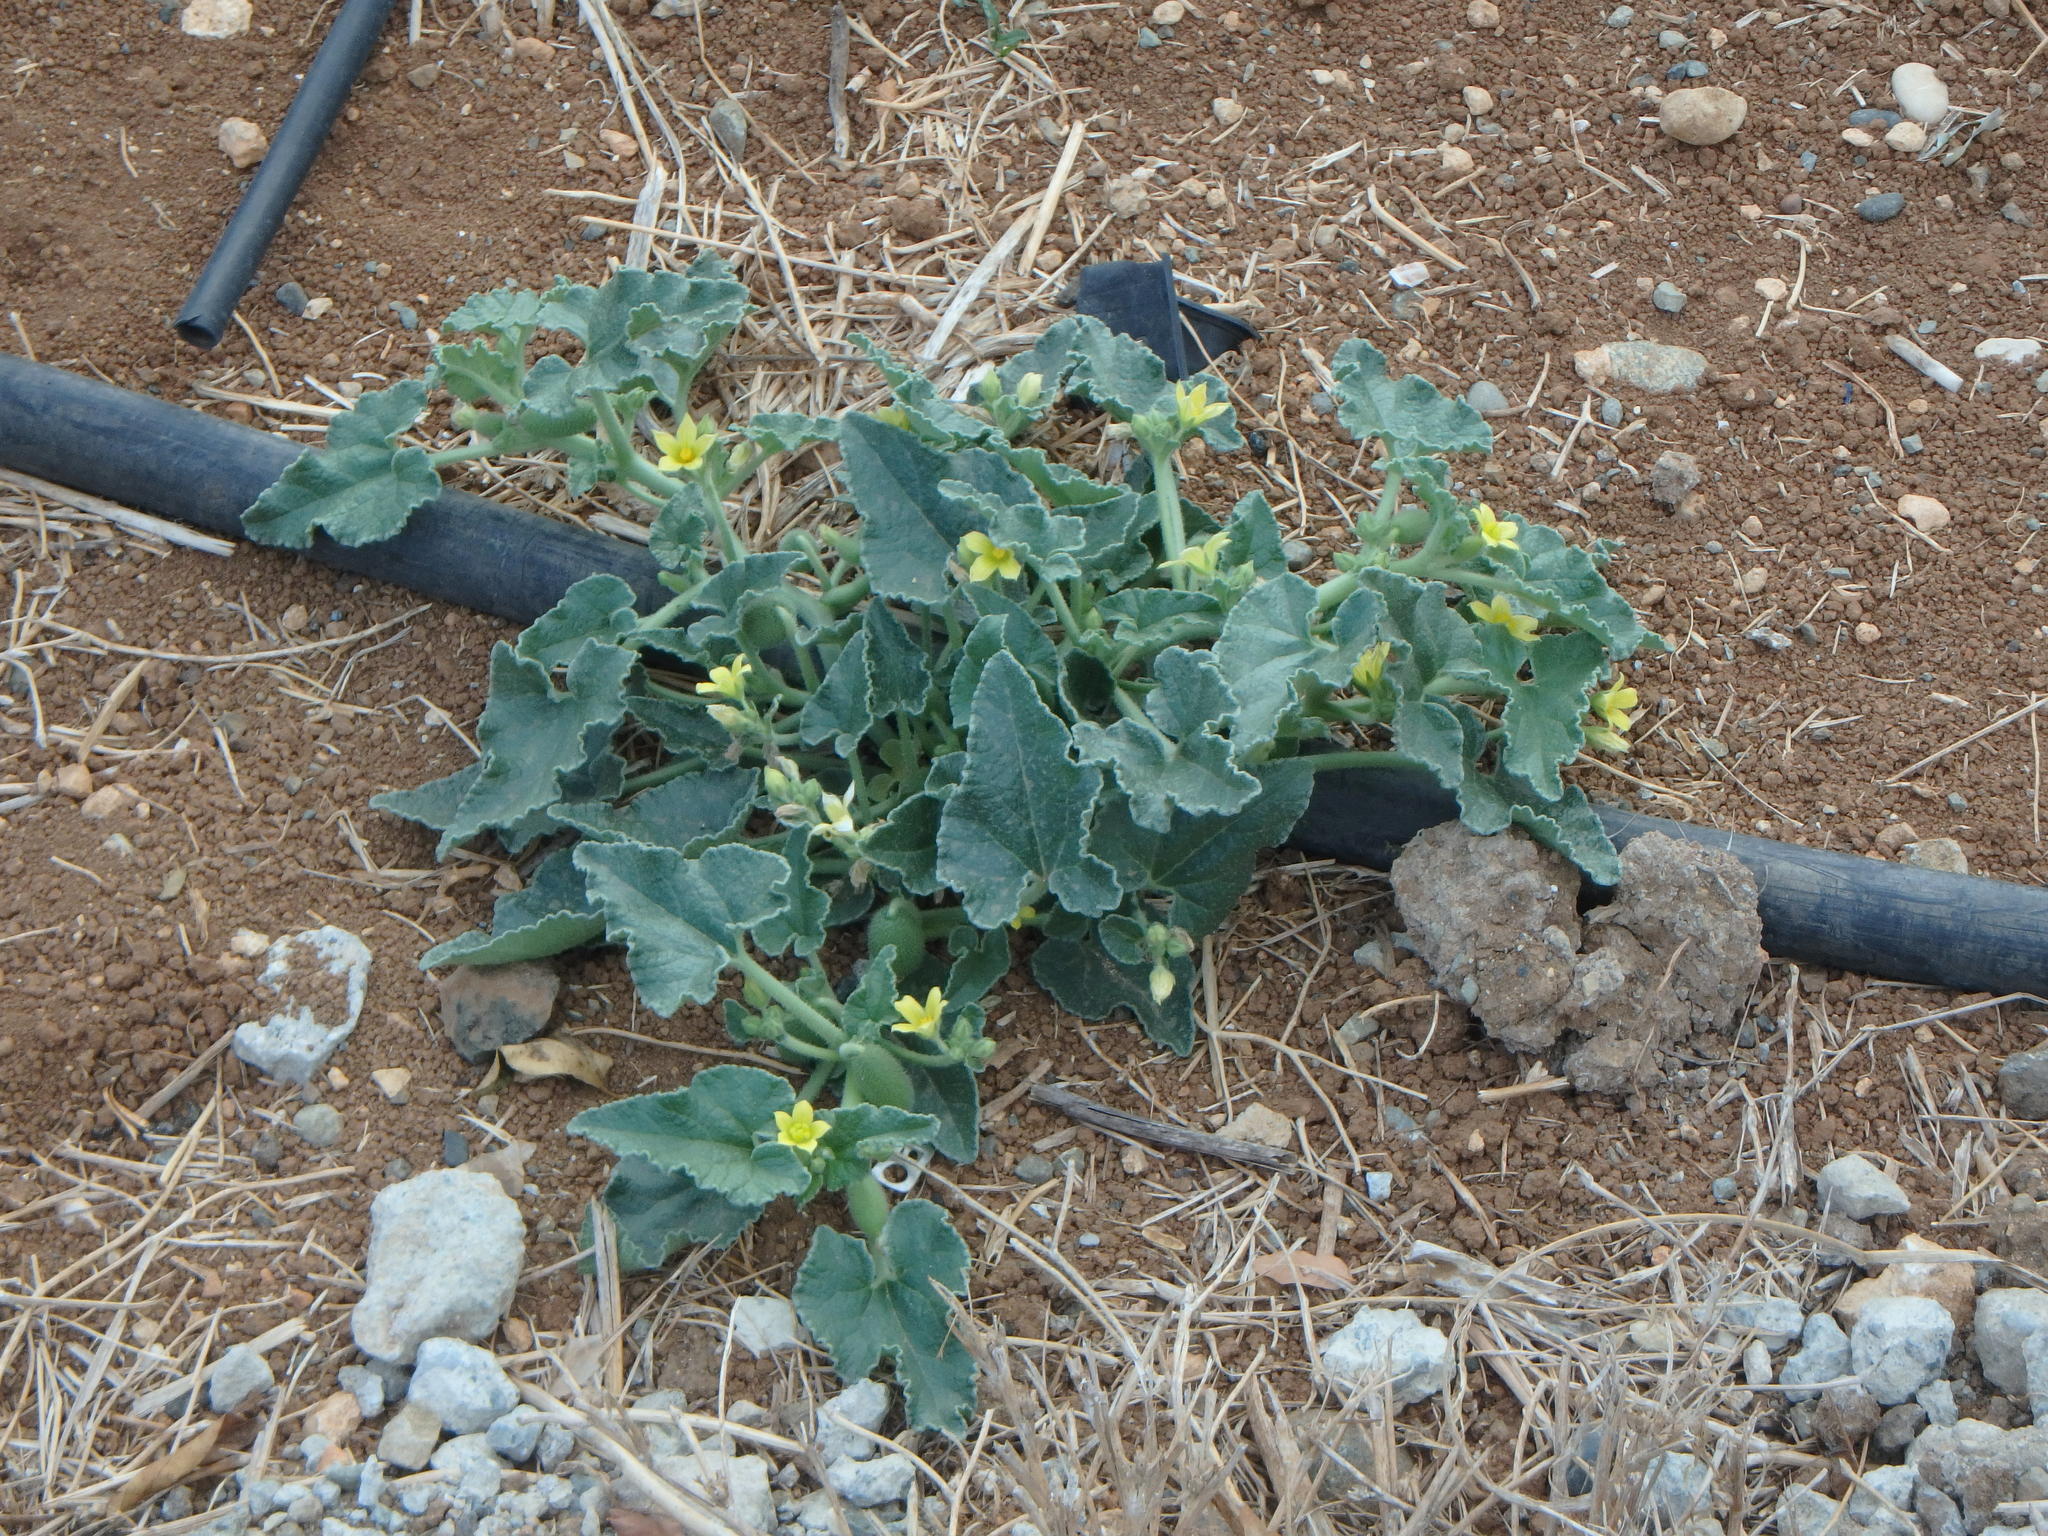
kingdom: Plantae
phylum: Tracheophyta
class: Magnoliopsida
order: Cucurbitales
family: Cucurbitaceae
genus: Ecballium
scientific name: Ecballium elaterium
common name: Squirting cucumber
